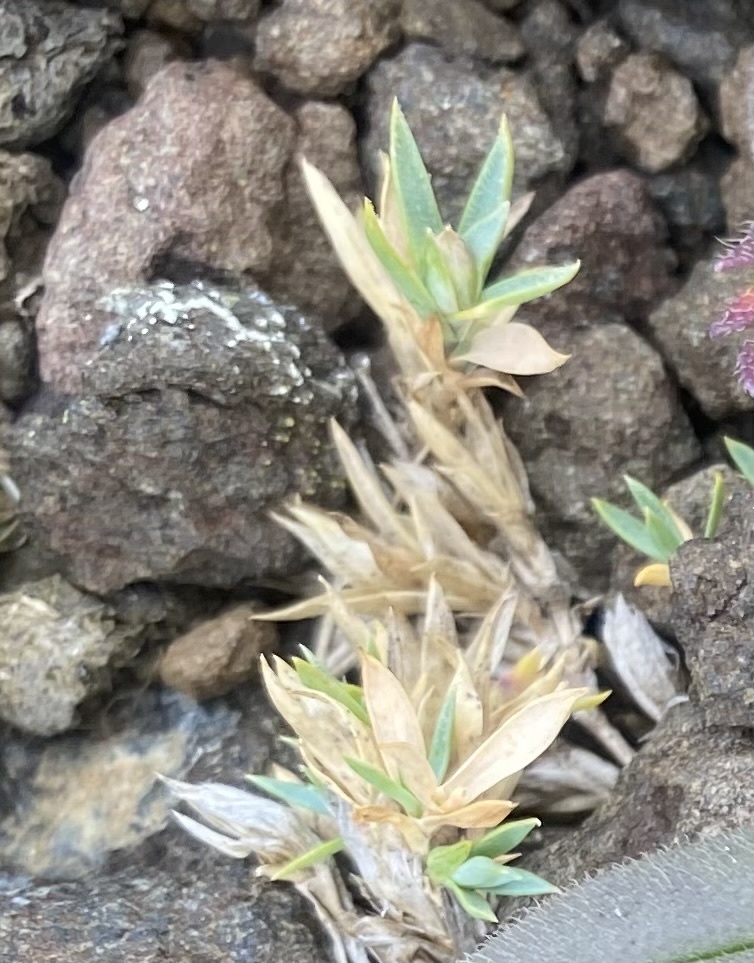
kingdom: Plantae
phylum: Tracheophyta
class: Magnoliopsida
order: Caryophyllales
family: Caryophyllaceae
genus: Stellaria
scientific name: Stellaria fischeriana
